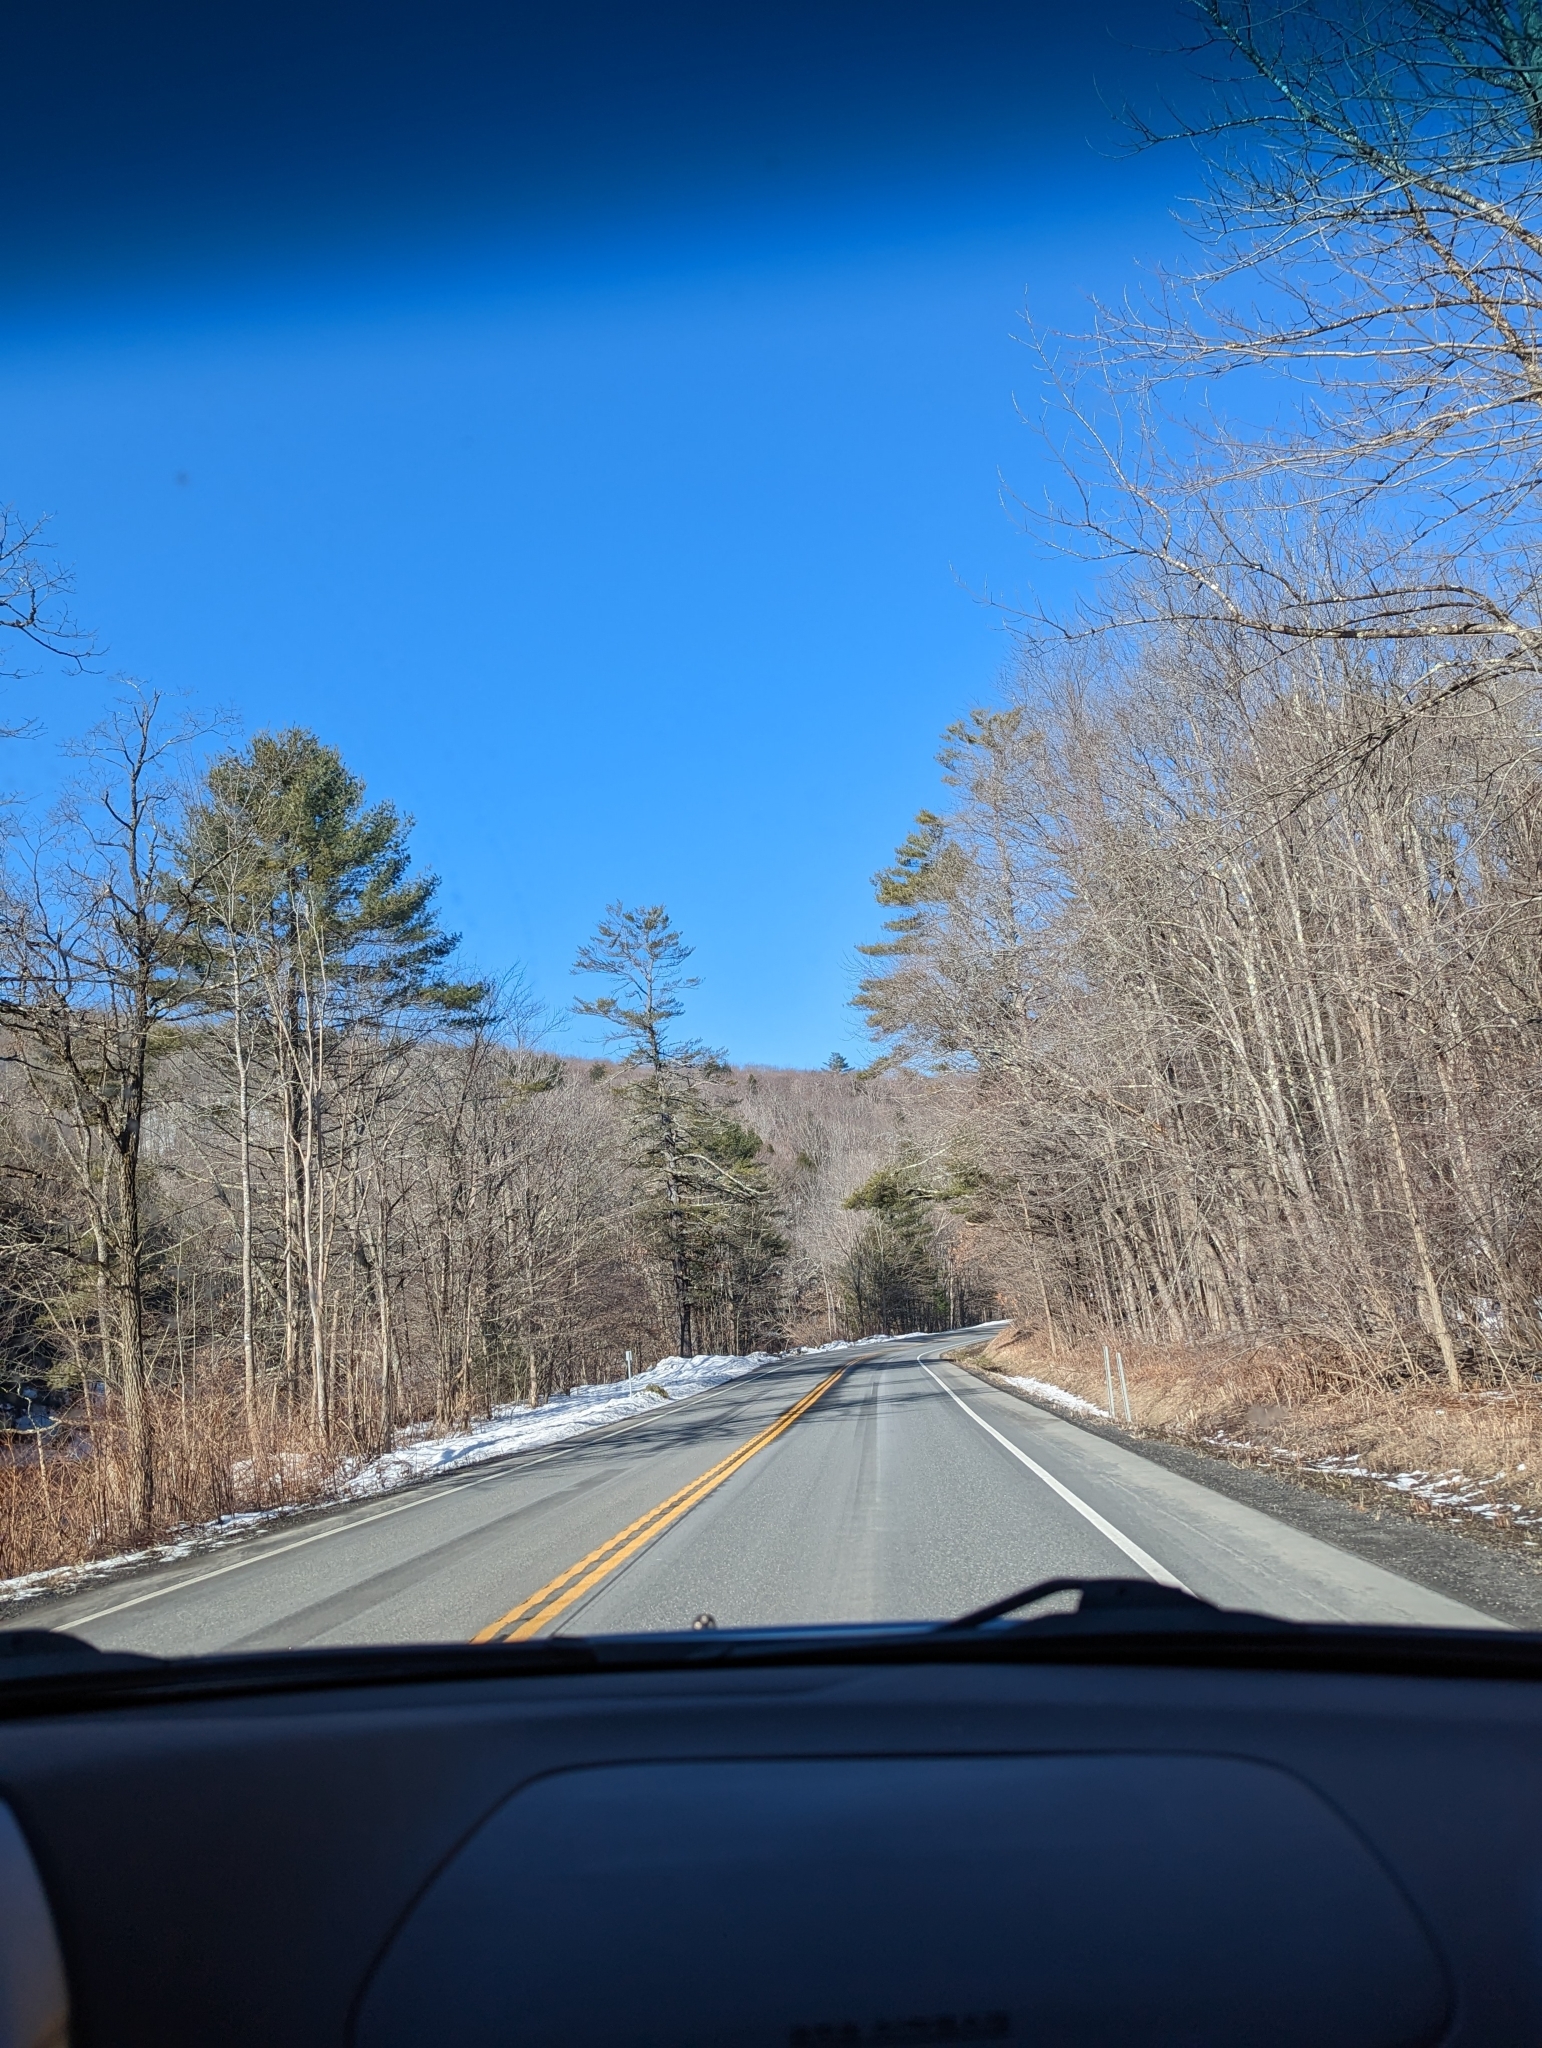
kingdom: Plantae
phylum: Tracheophyta
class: Pinopsida
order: Pinales
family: Pinaceae
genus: Pinus
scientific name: Pinus strobus
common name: Weymouth pine
